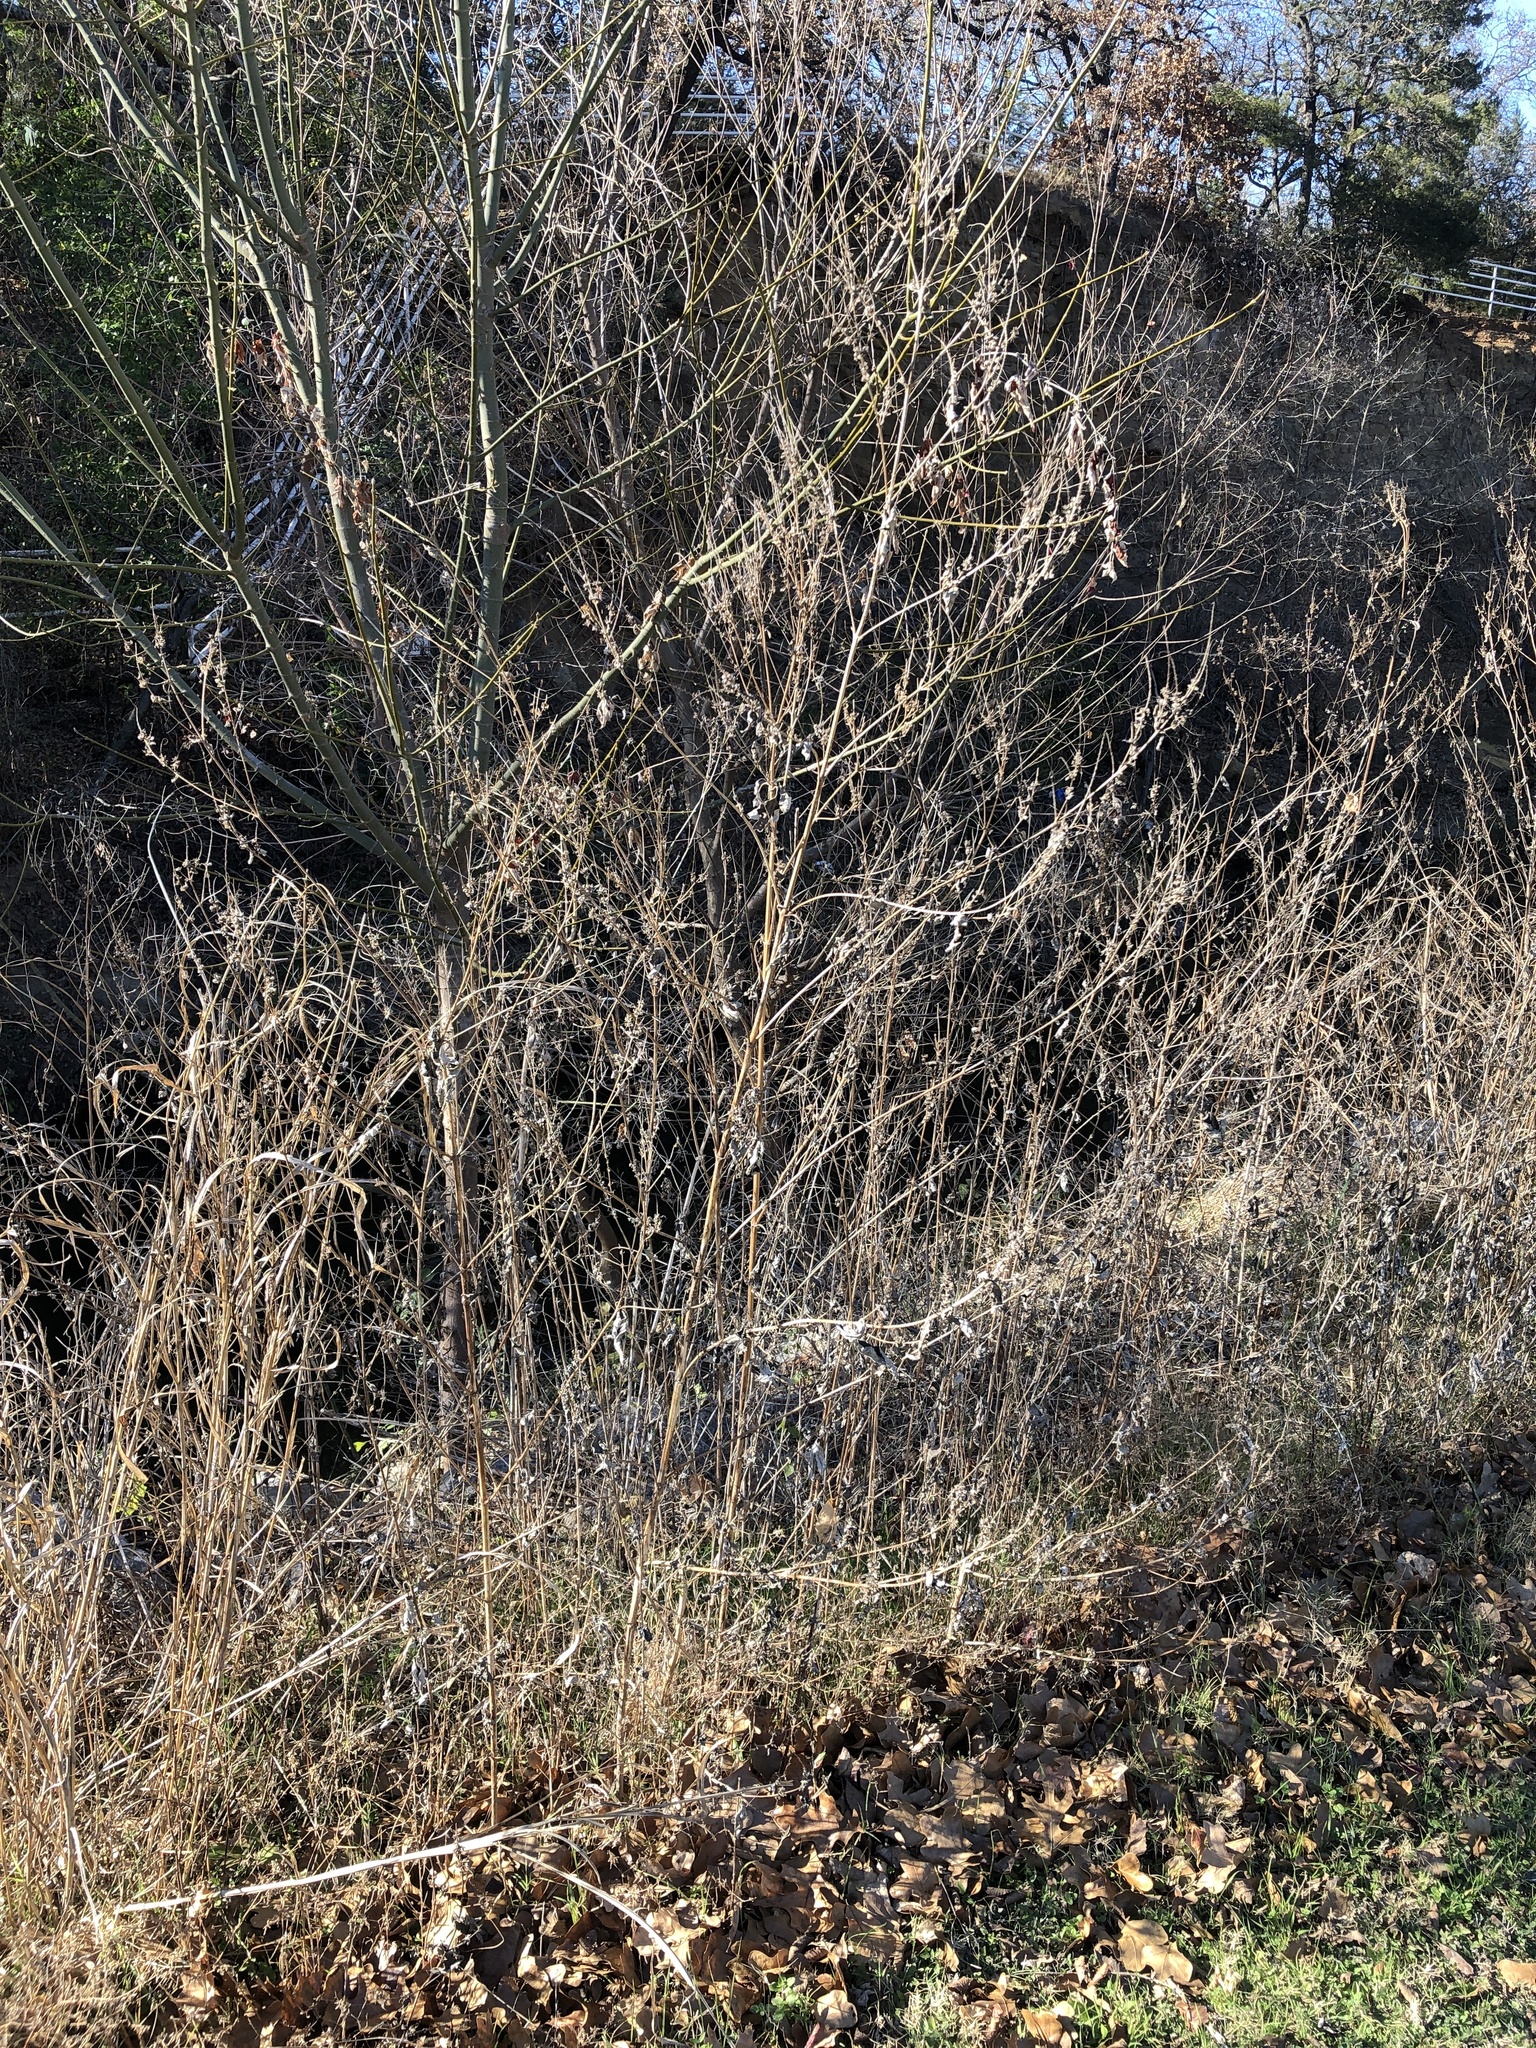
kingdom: Plantae
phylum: Tracheophyta
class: Magnoliopsida
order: Asterales
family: Asteraceae
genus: Ambrosia
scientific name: Ambrosia trifida
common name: Giant ragweed
